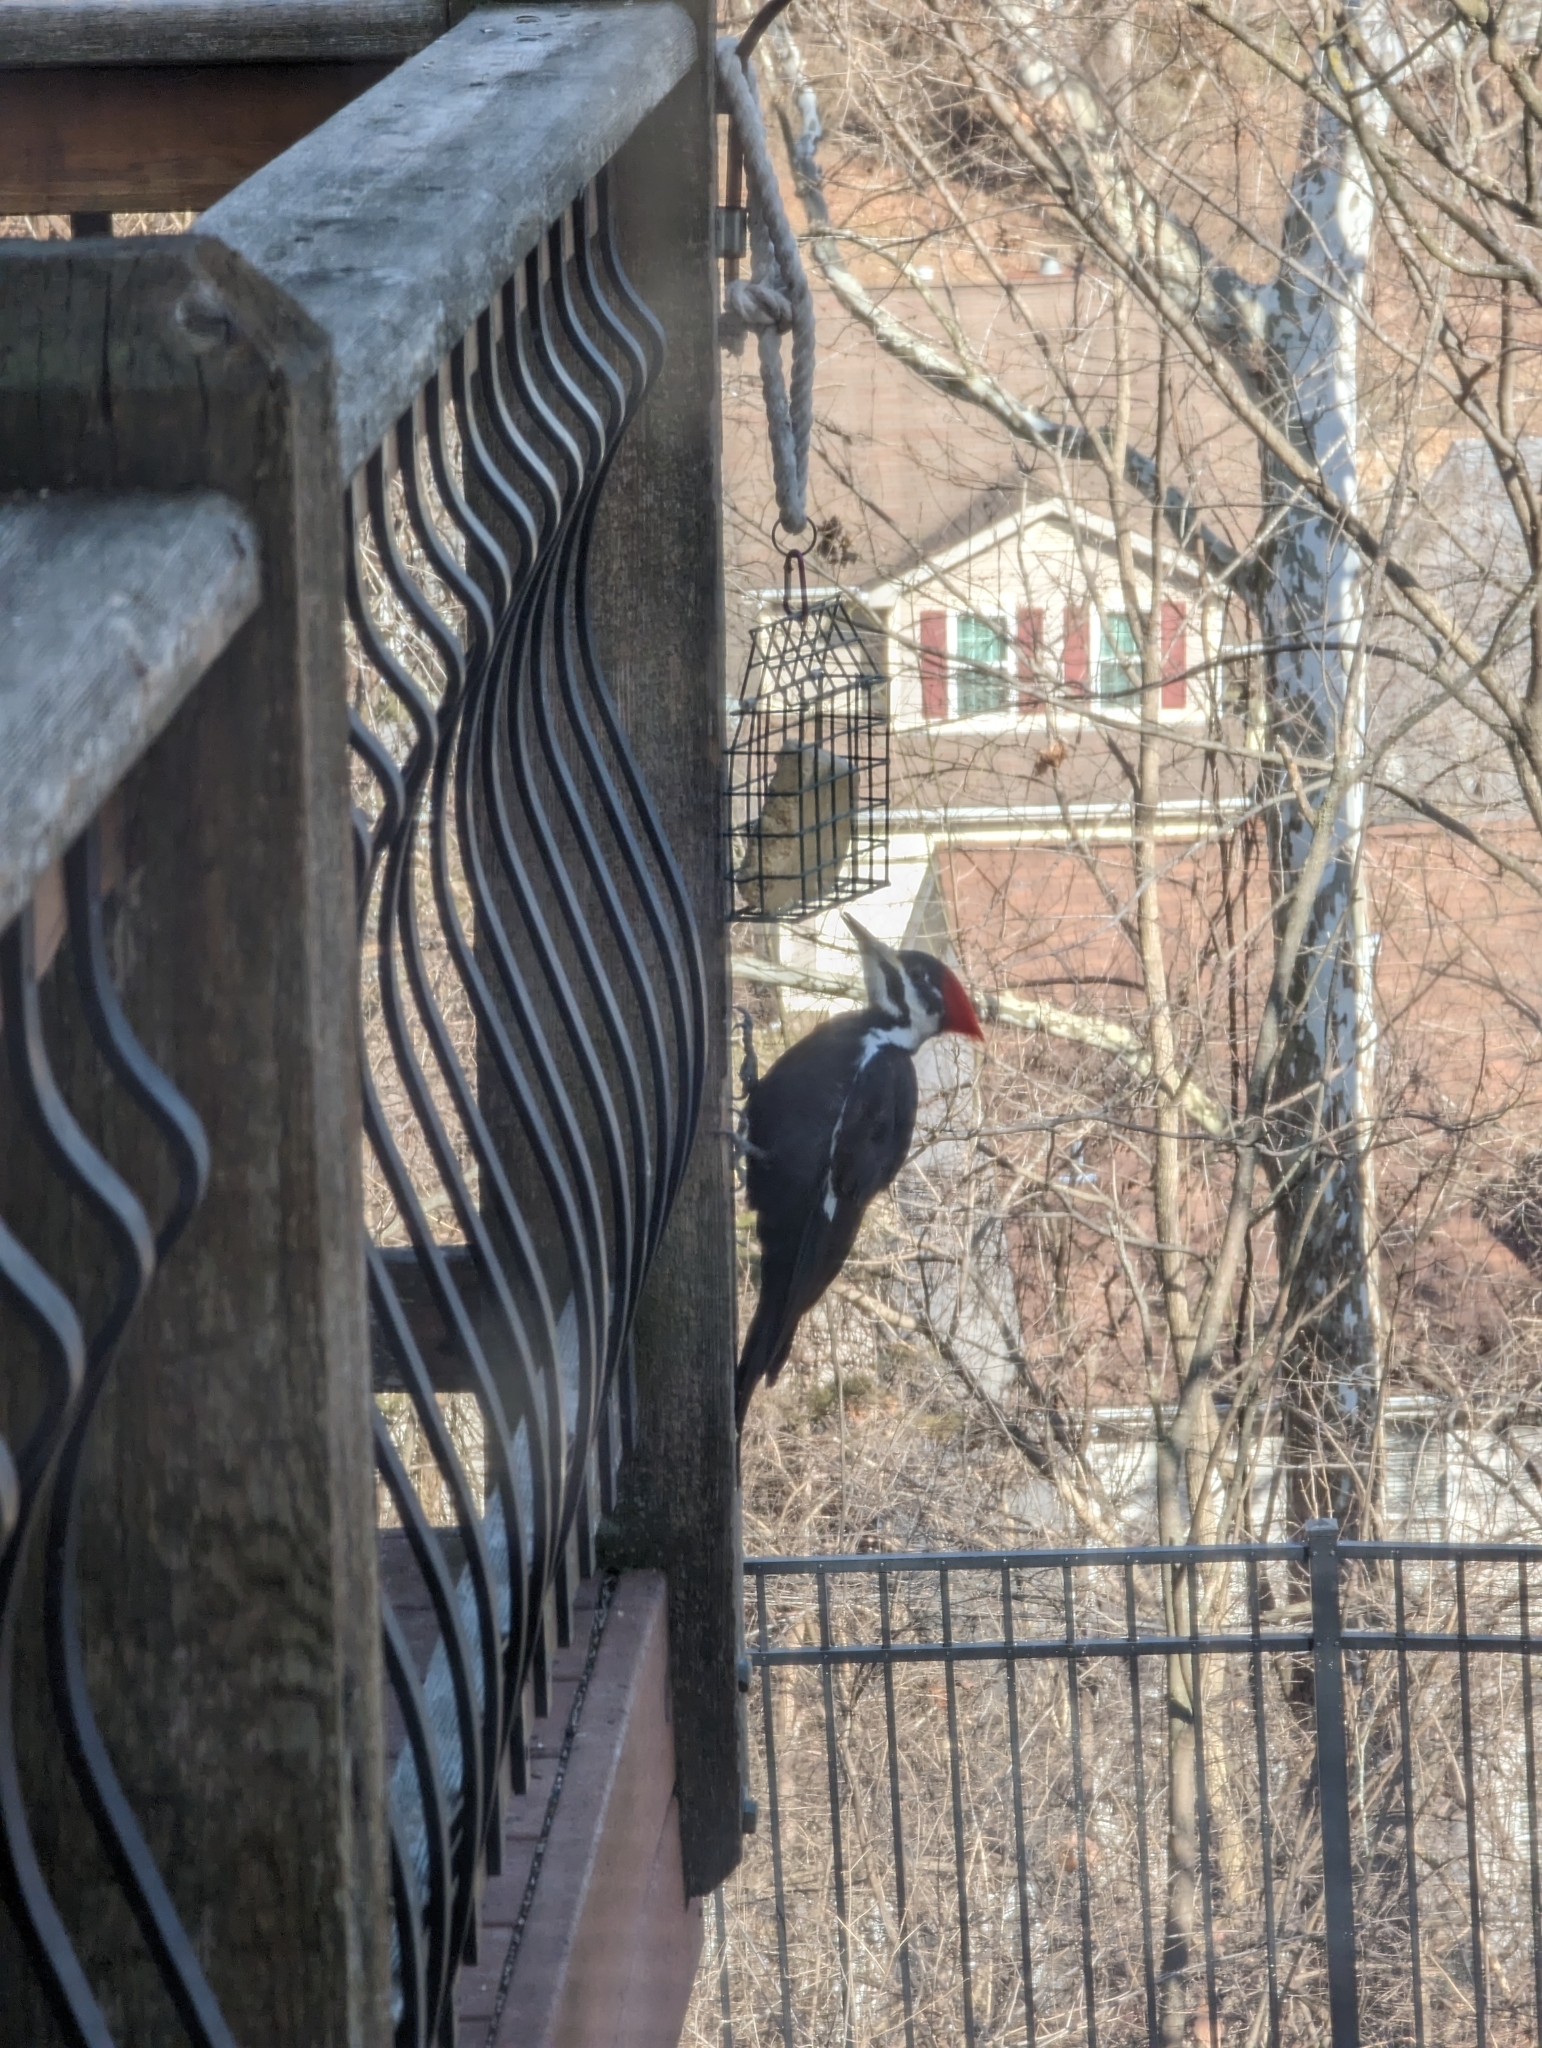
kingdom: Animalia
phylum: Chordata
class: Aves
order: Piciformes
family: Picidae
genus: Dryocopus
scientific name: Dryocopus pileatus
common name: Pileated woodpecker
